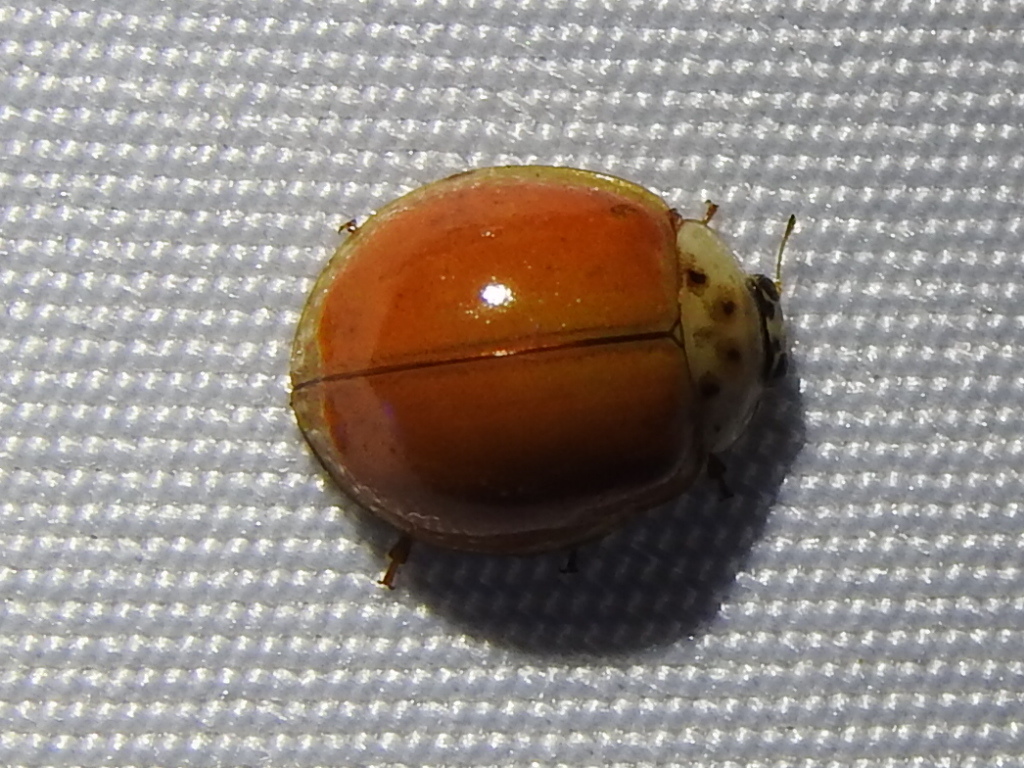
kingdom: Animalia
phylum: Arthropoda
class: Insecta
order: Coleoptera
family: Coccinellidae
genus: Harmonia
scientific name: Harmonia axyridis
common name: Harlequin ladybird
